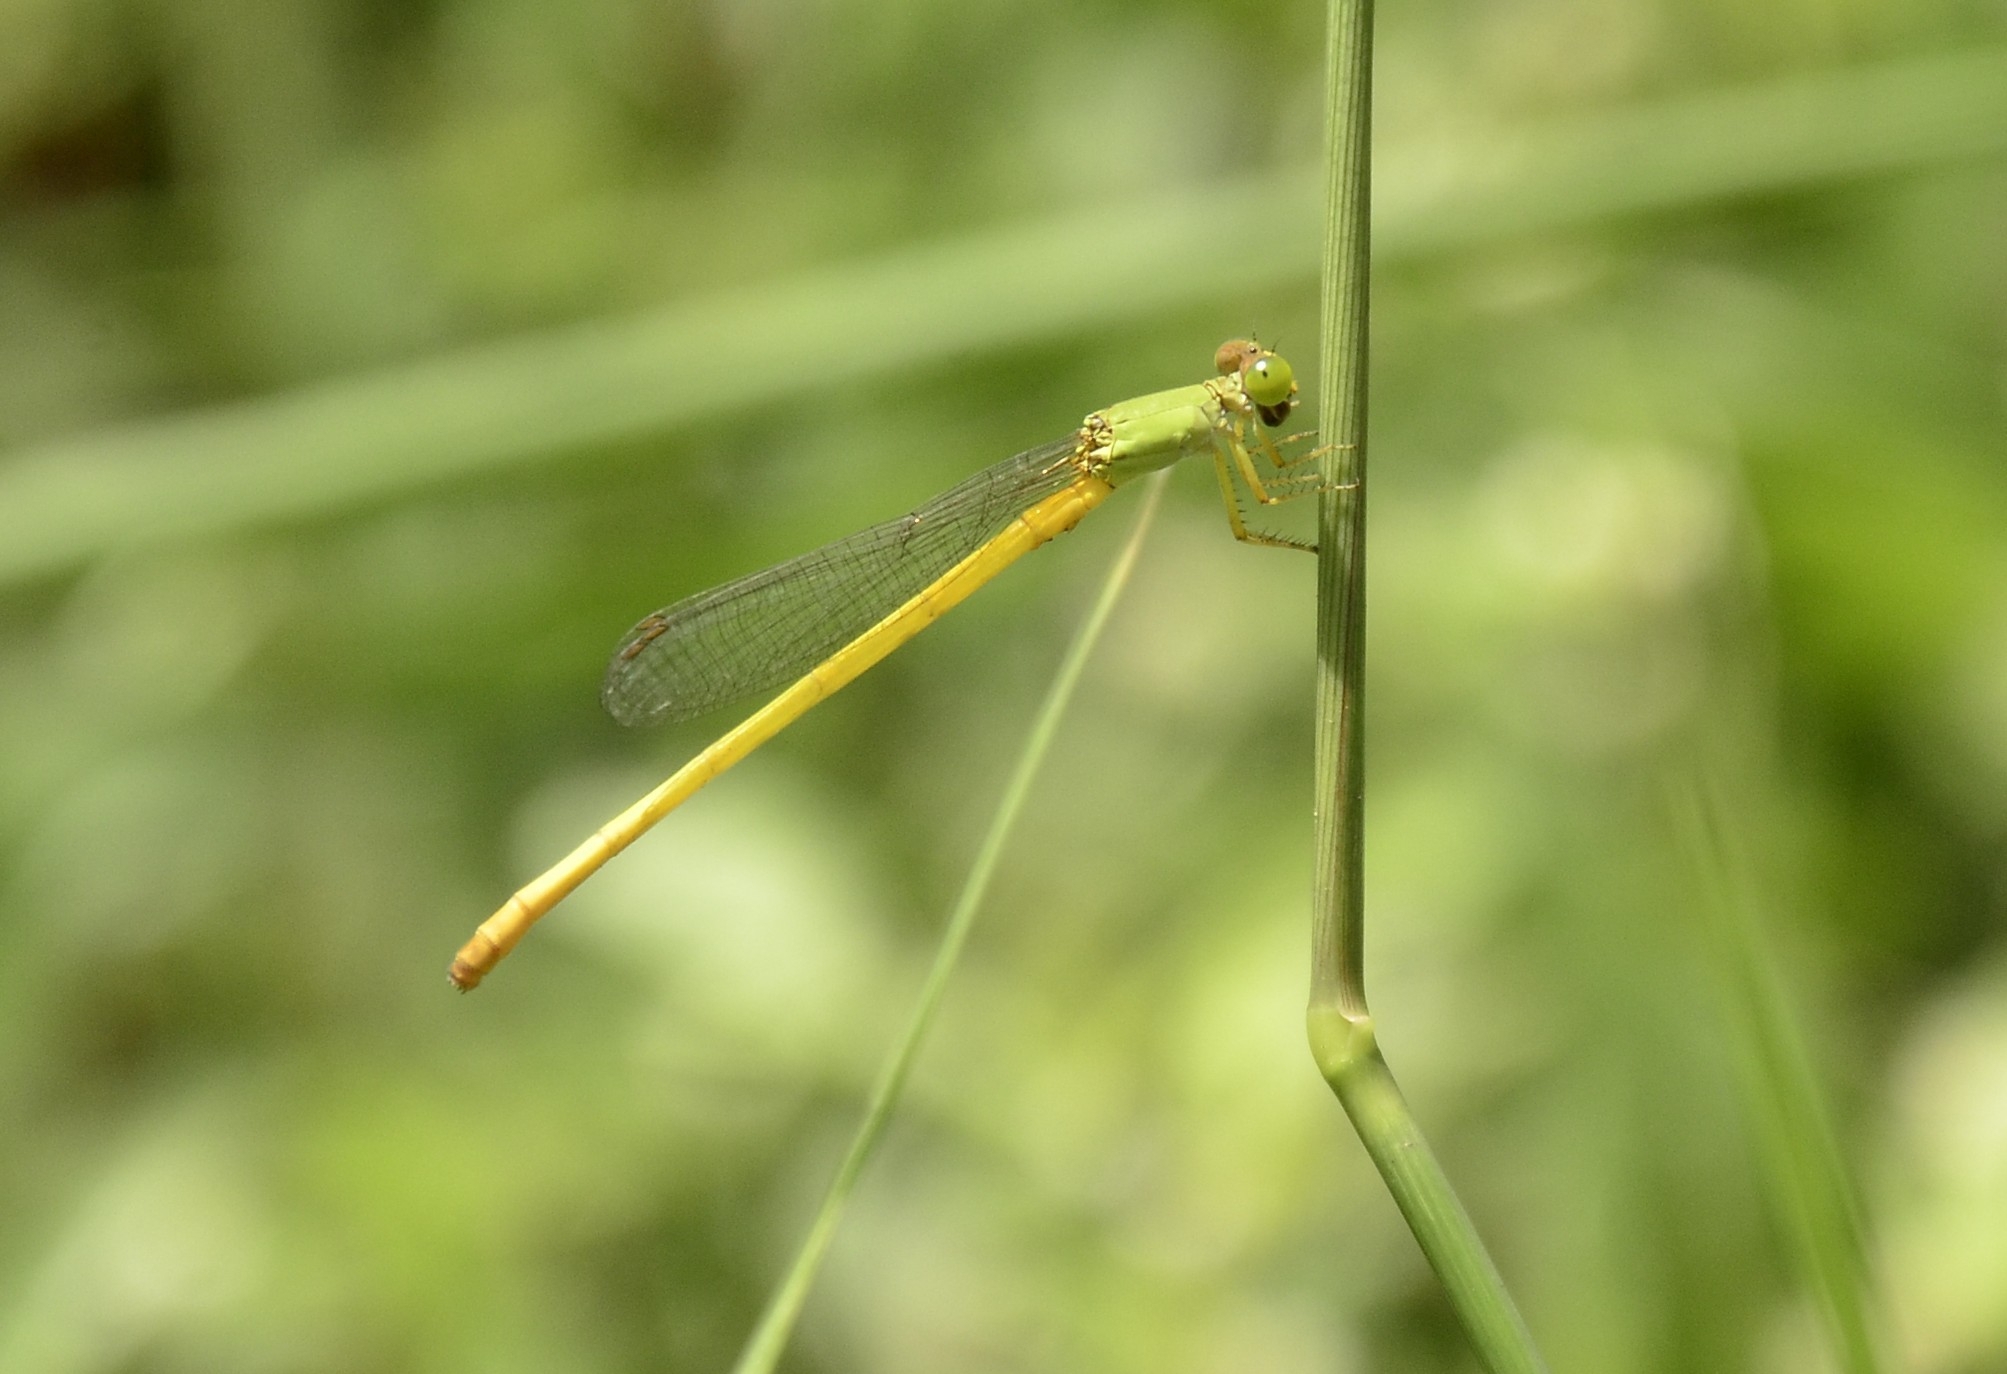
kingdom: Animalia
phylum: Arthropoda
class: Insecta
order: Odonata
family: Coenagrionidae
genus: Ceriagrion
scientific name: Ceriagrion coromandelianum
